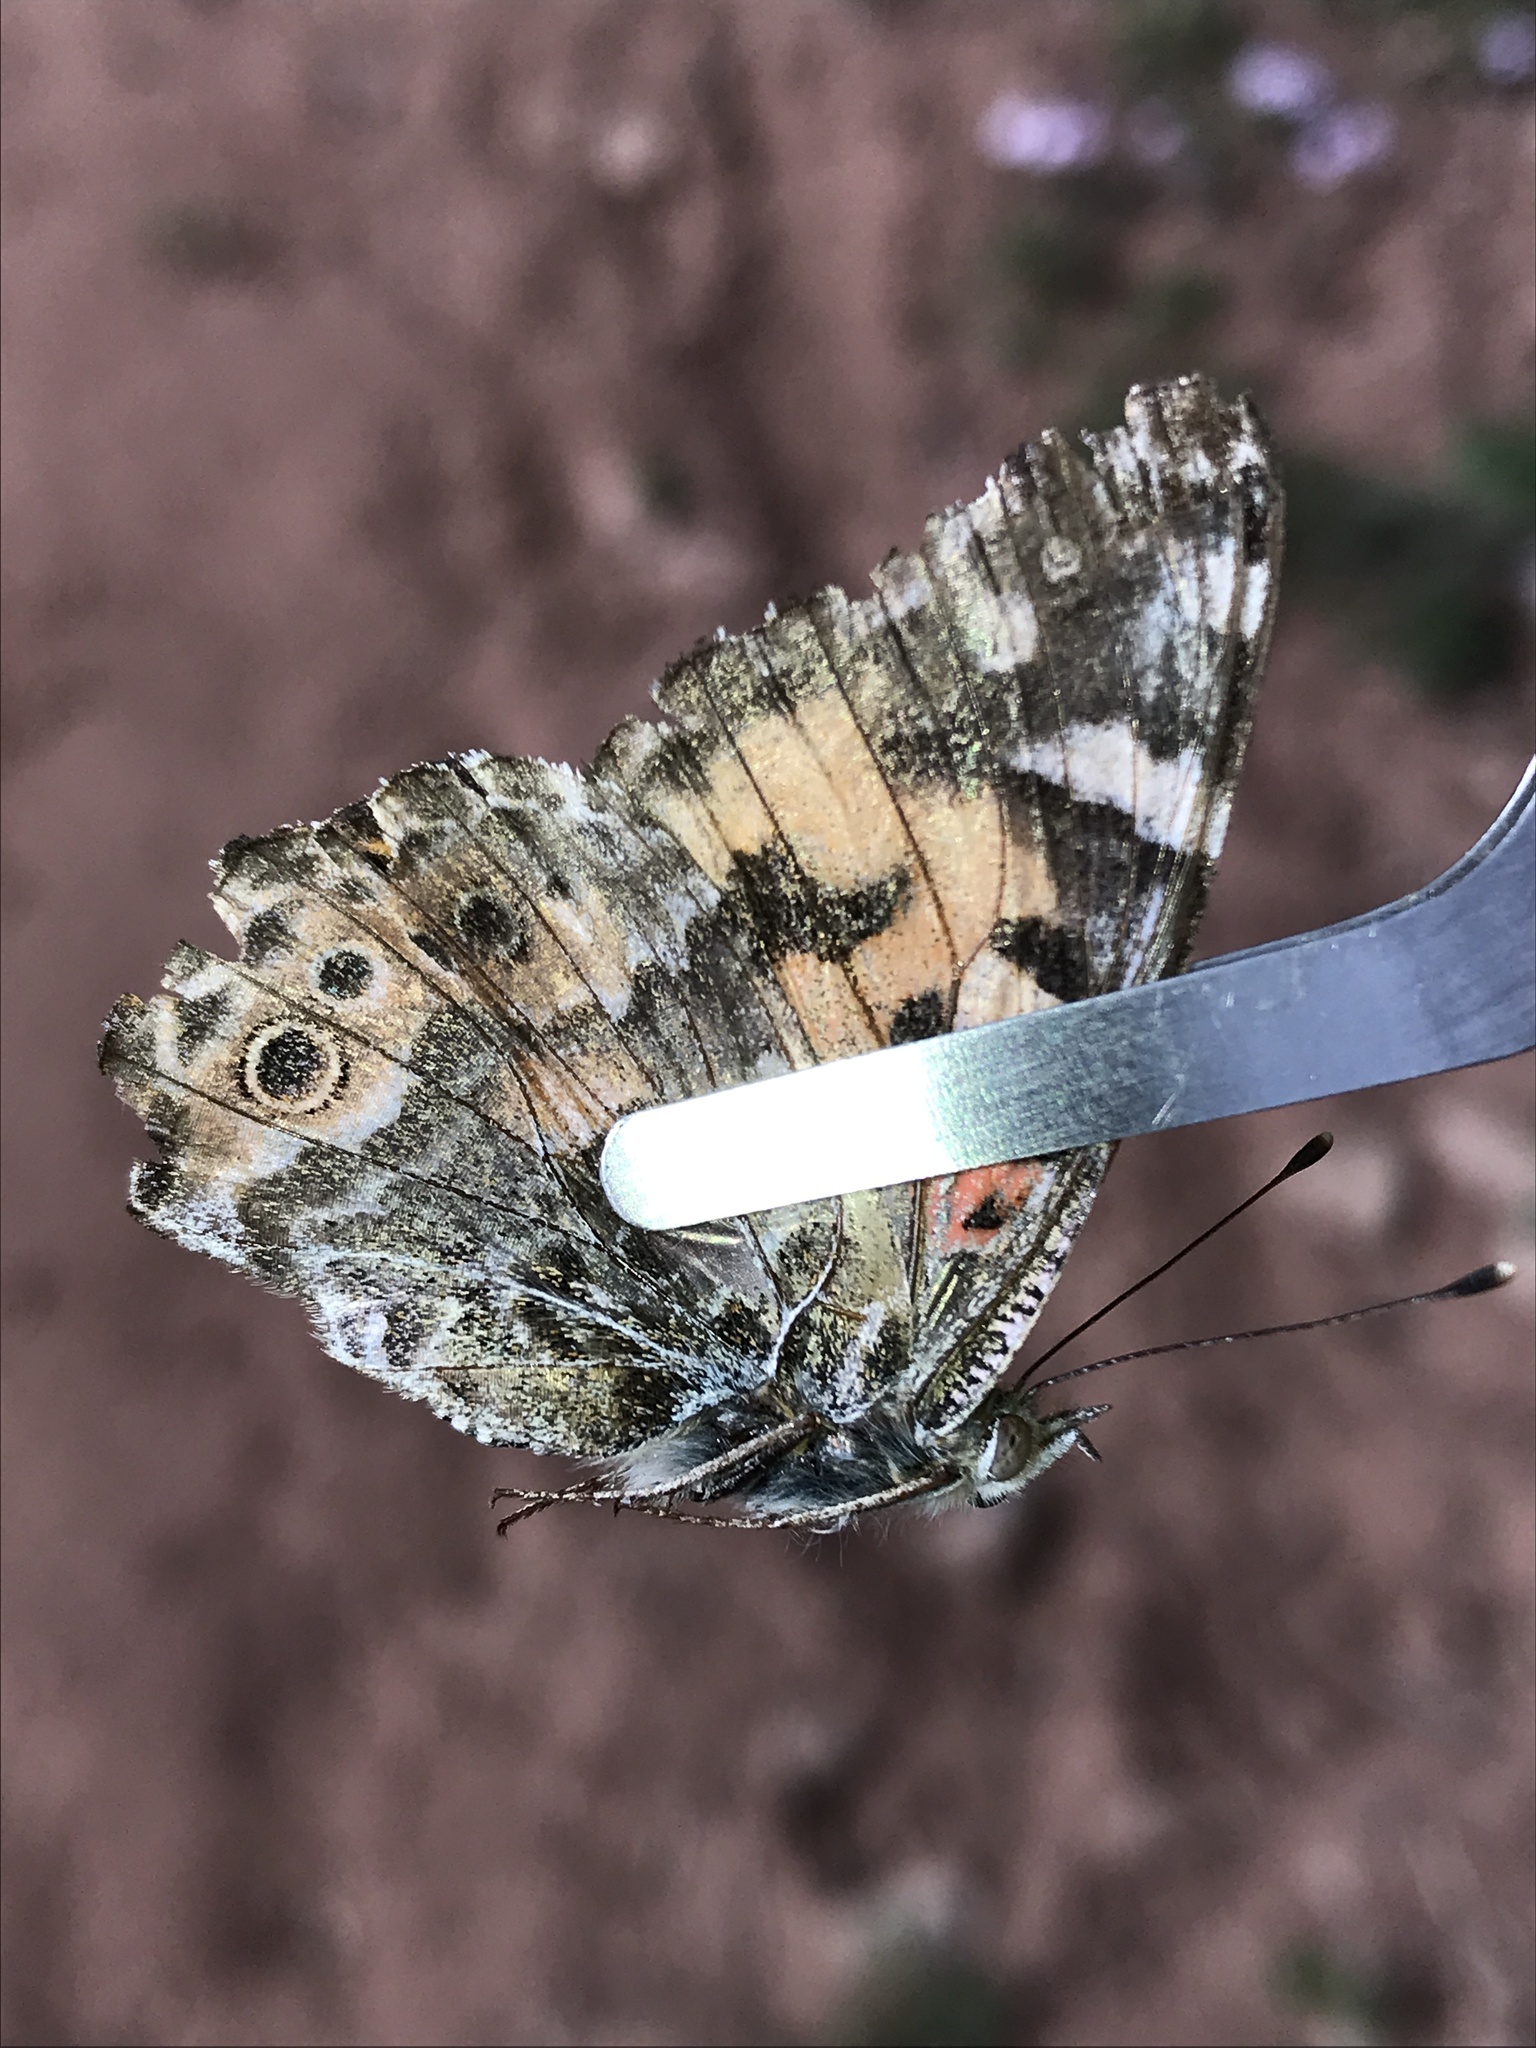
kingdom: Animalia
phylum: Arthropoda
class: Insecta
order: Lepidoptera
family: Nymphalidae
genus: Vanessa
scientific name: Vanessa cardui
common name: Painted lady
